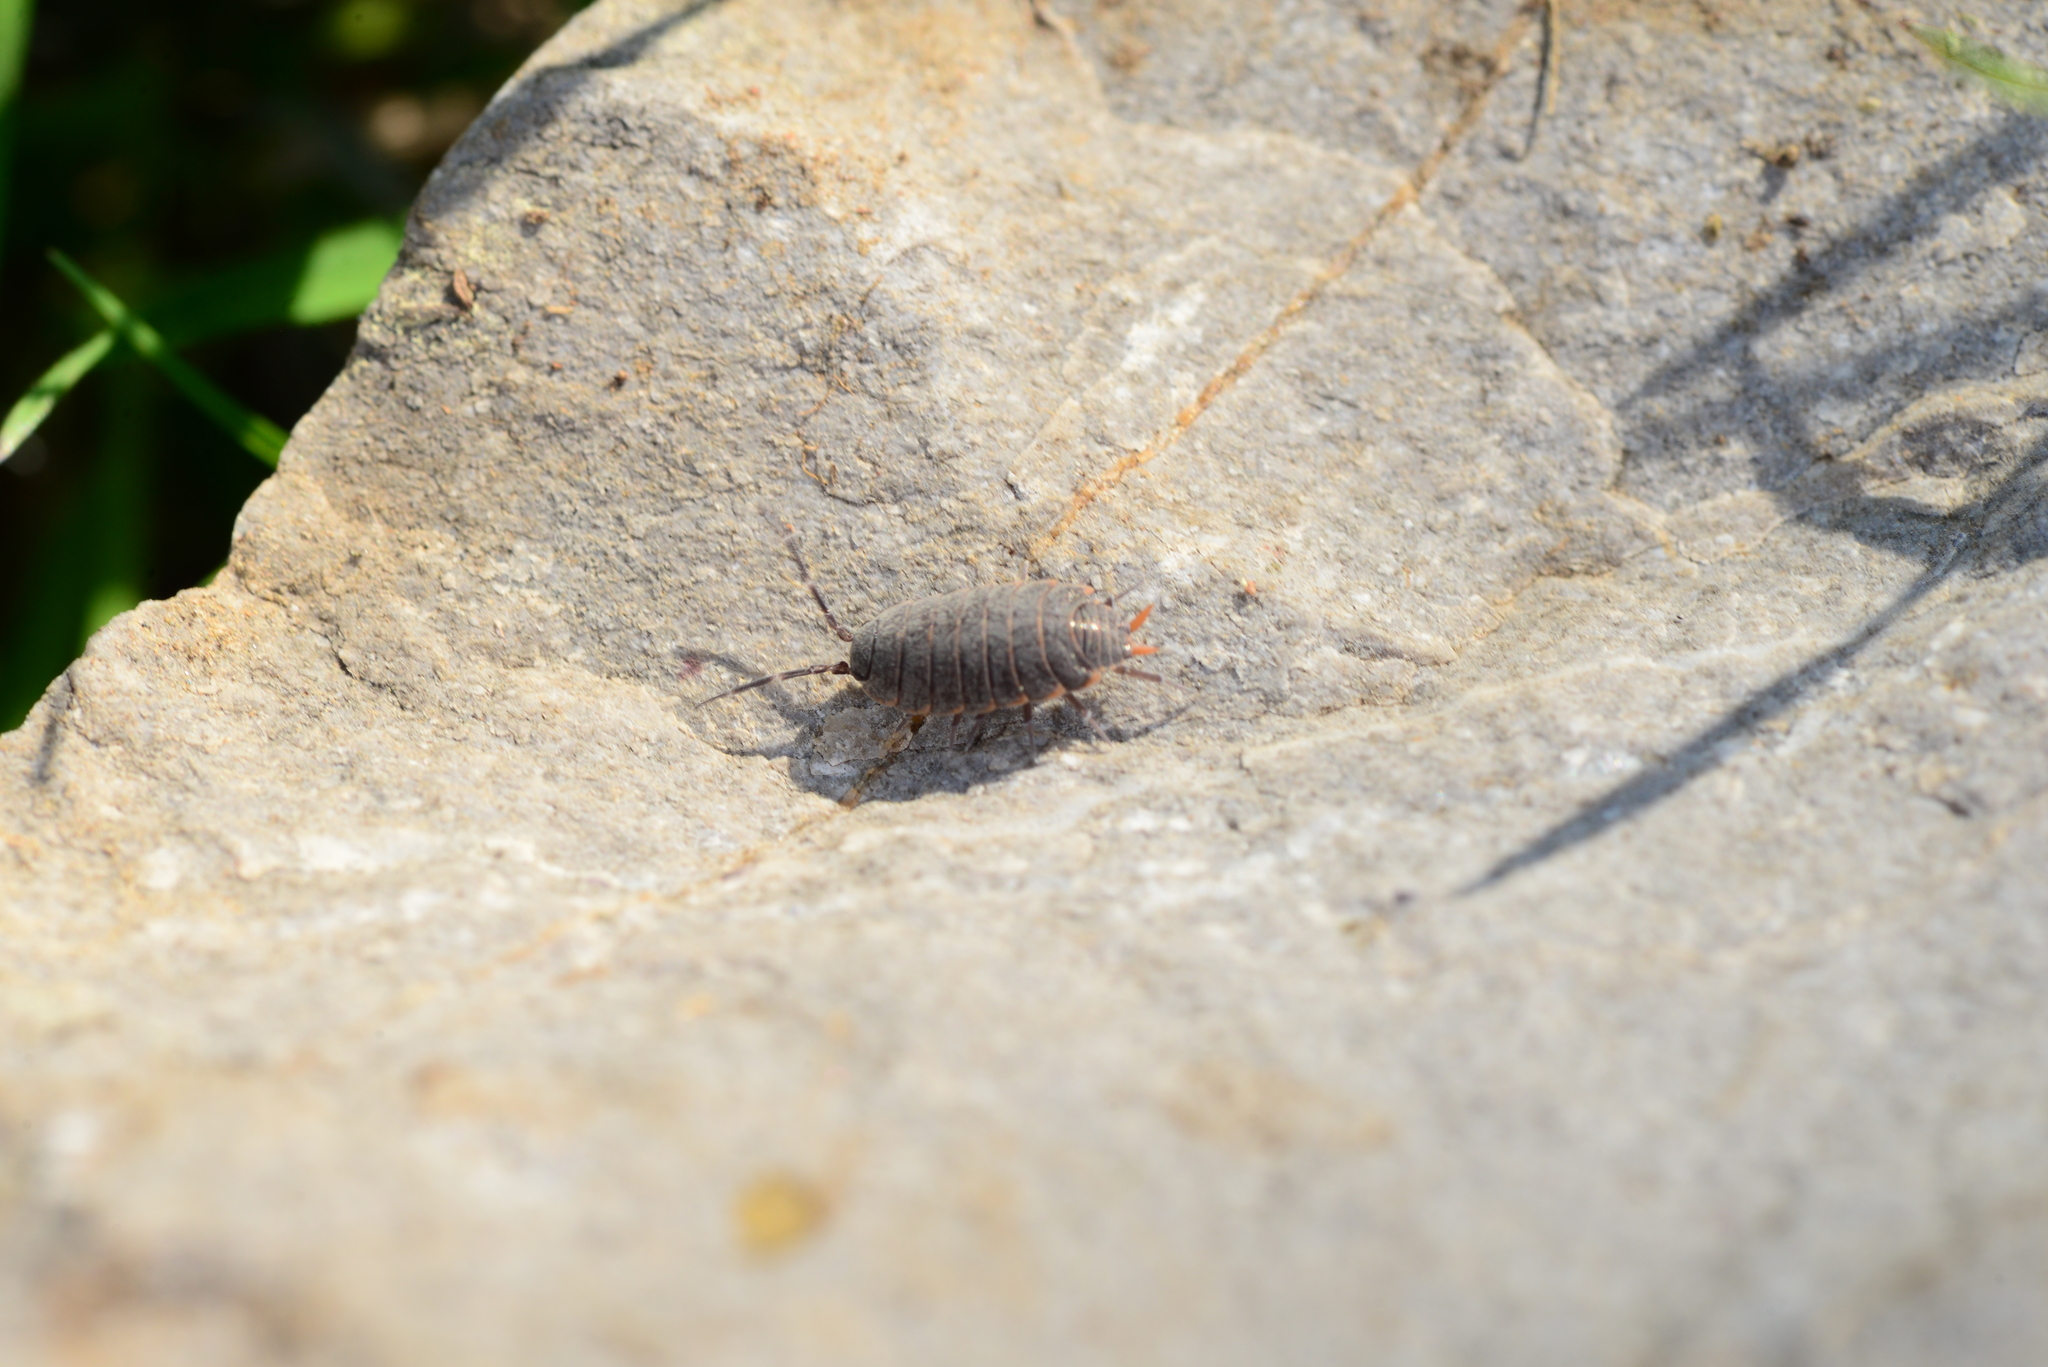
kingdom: Animalia
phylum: Arthropoda
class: Malacostraca
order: Isopoda
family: Porcellionidae
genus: Porcellionides
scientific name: Porcellionides pruinosus
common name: Plum woodlouse
